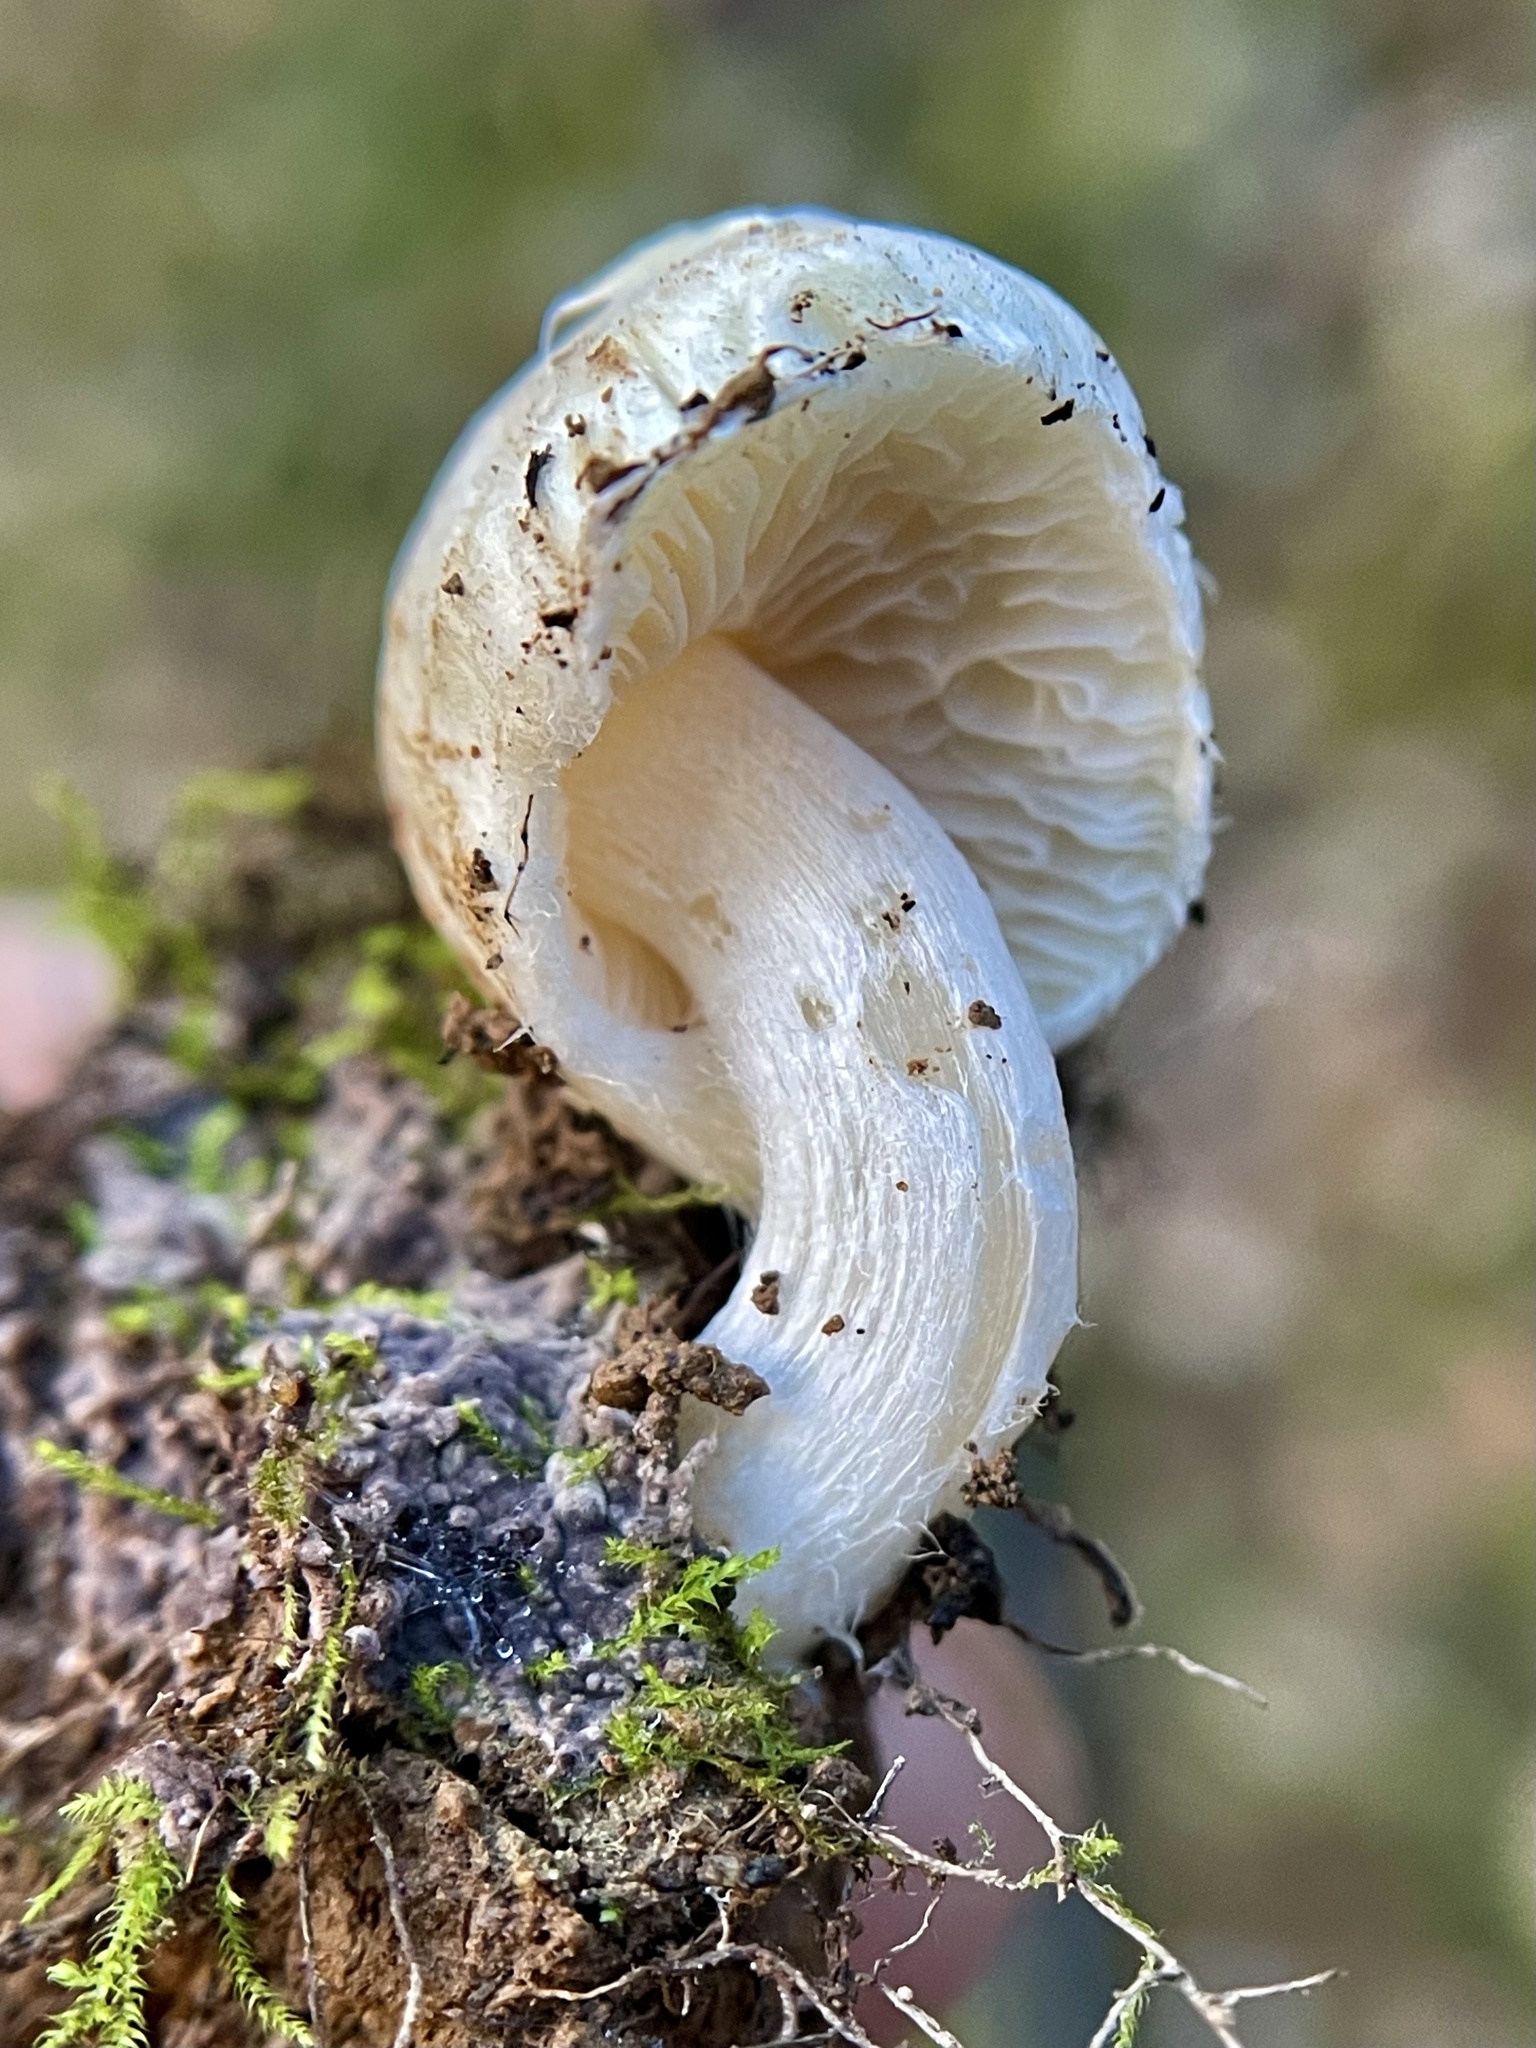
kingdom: Fungi
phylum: Basidiomycota
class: Agaricomycetes
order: Agaricales
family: Inocybaceae
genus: Inocybe
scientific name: Inocybe insinuata
